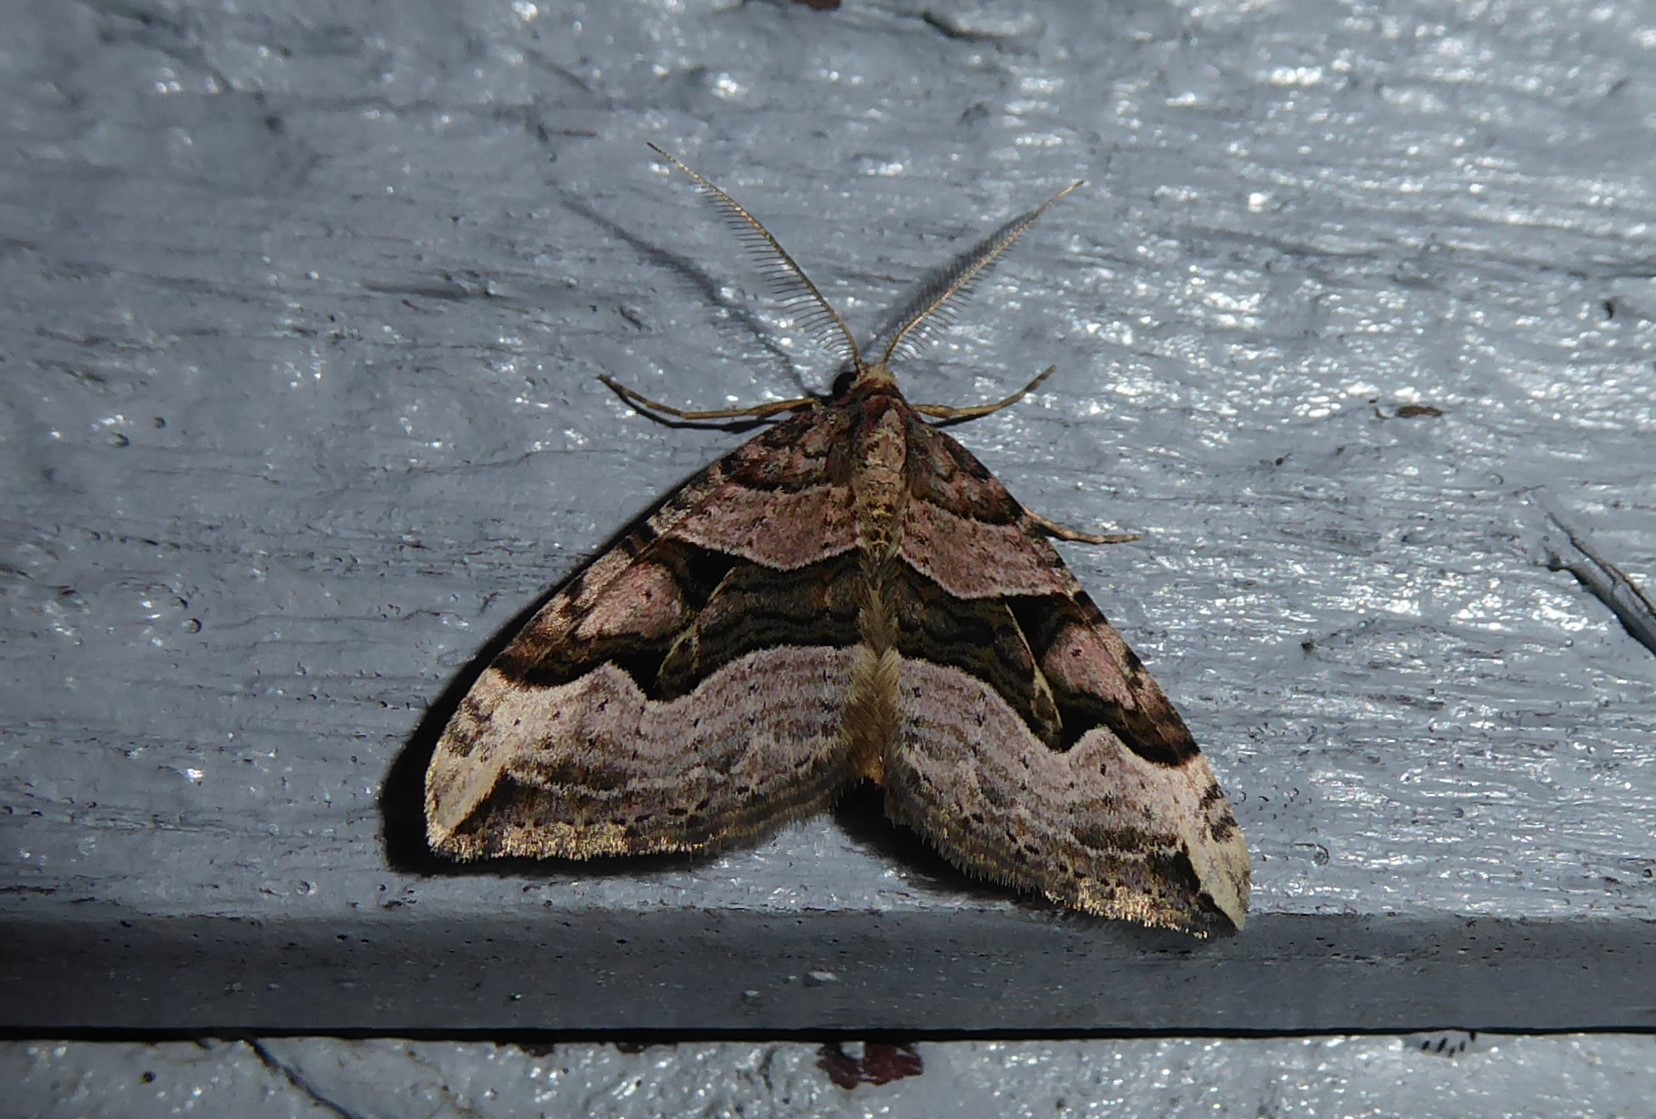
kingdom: Animalia
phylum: Arthropoda
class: Insecta
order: Lepidoptera
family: Geometridae
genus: Xanthorhoe
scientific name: Xanthorhoe semifissata
